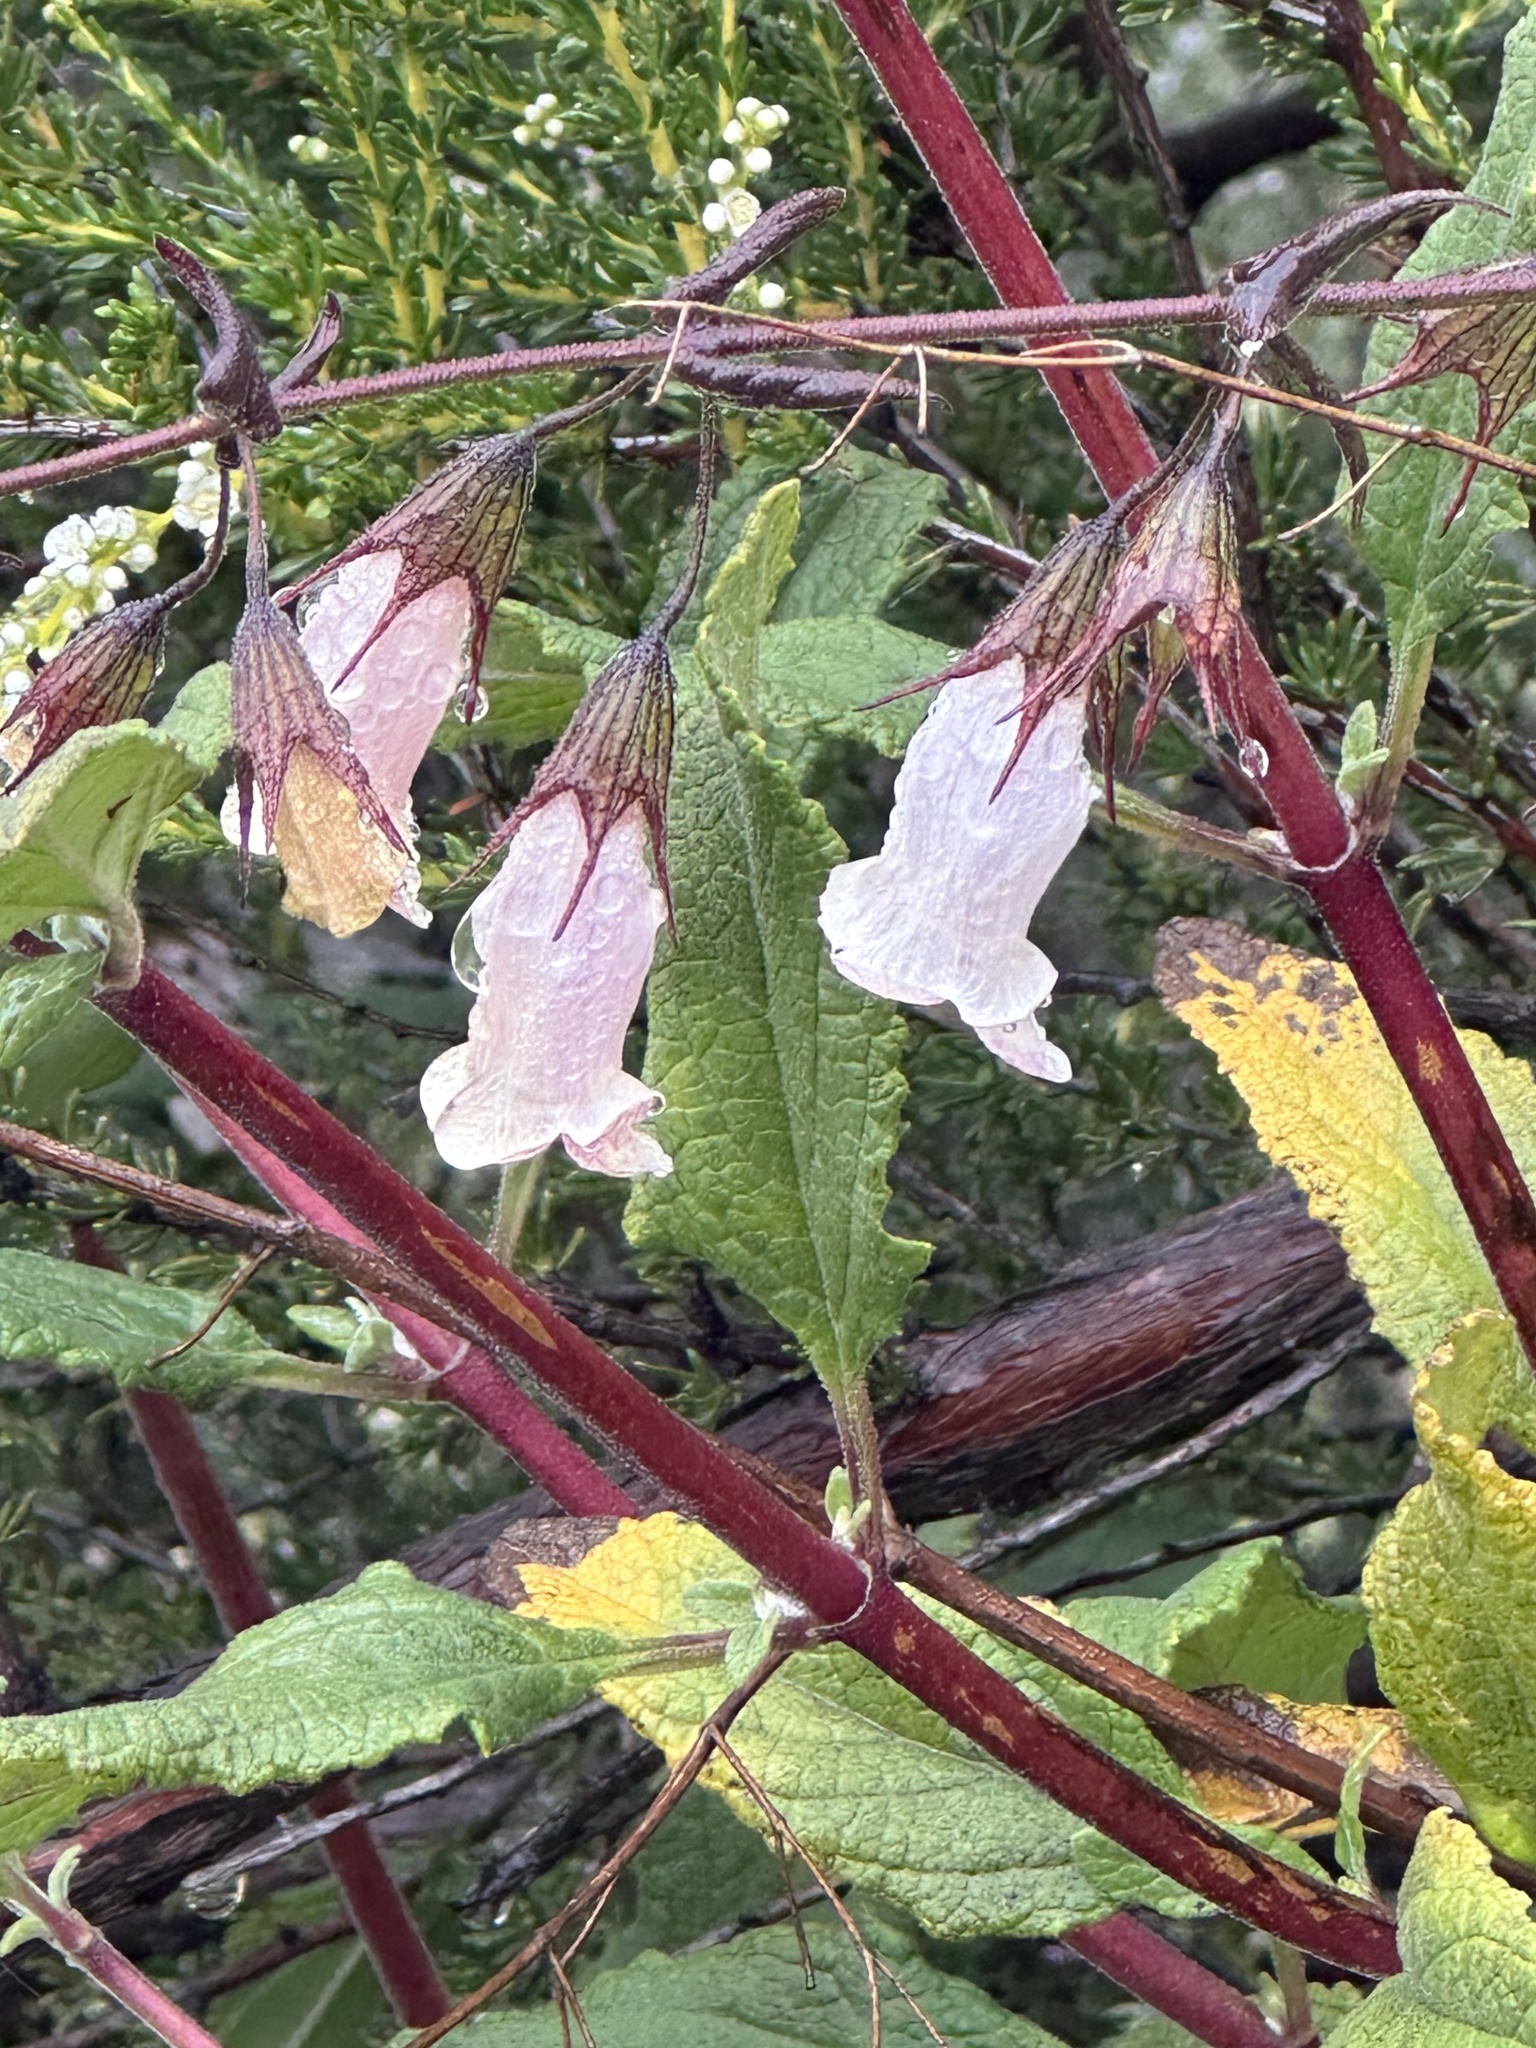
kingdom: Plantae
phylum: Tracheophyta
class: Magnoliopsida
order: Lamiales
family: Lamiaceae
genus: Lepechinia
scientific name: Lepechinia ganderi
